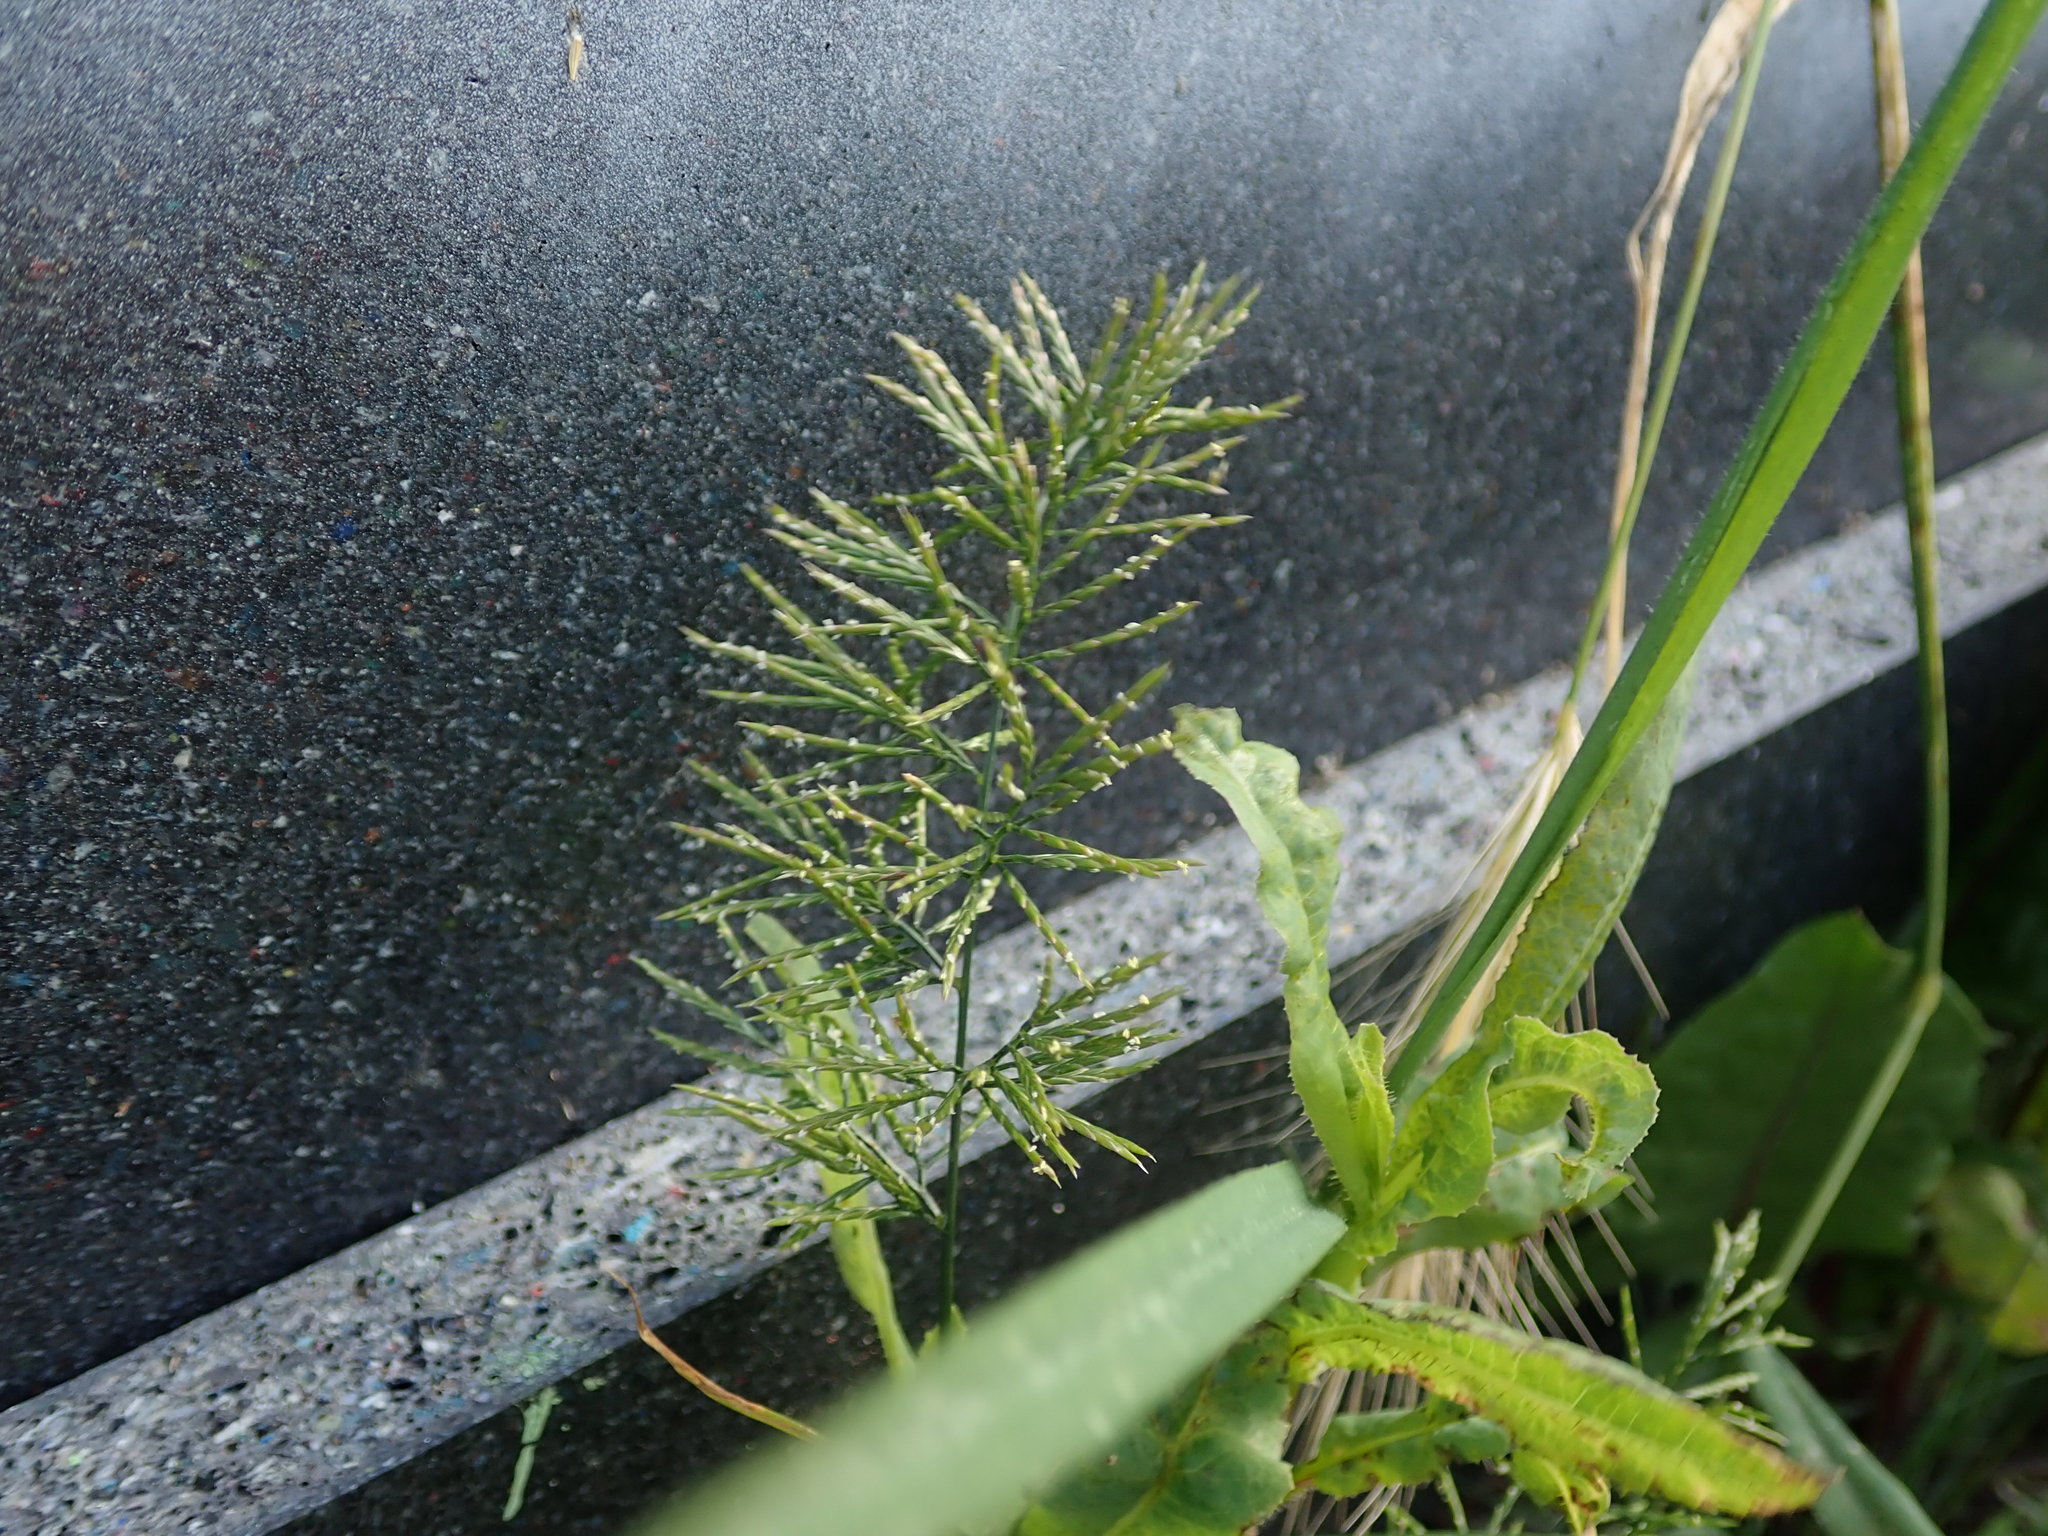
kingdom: Plantae
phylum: Tracheophyta
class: Liliopsida
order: Poales
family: Poaceae
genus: Catapodium
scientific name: Catapodium rigidum
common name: Fern-grass
